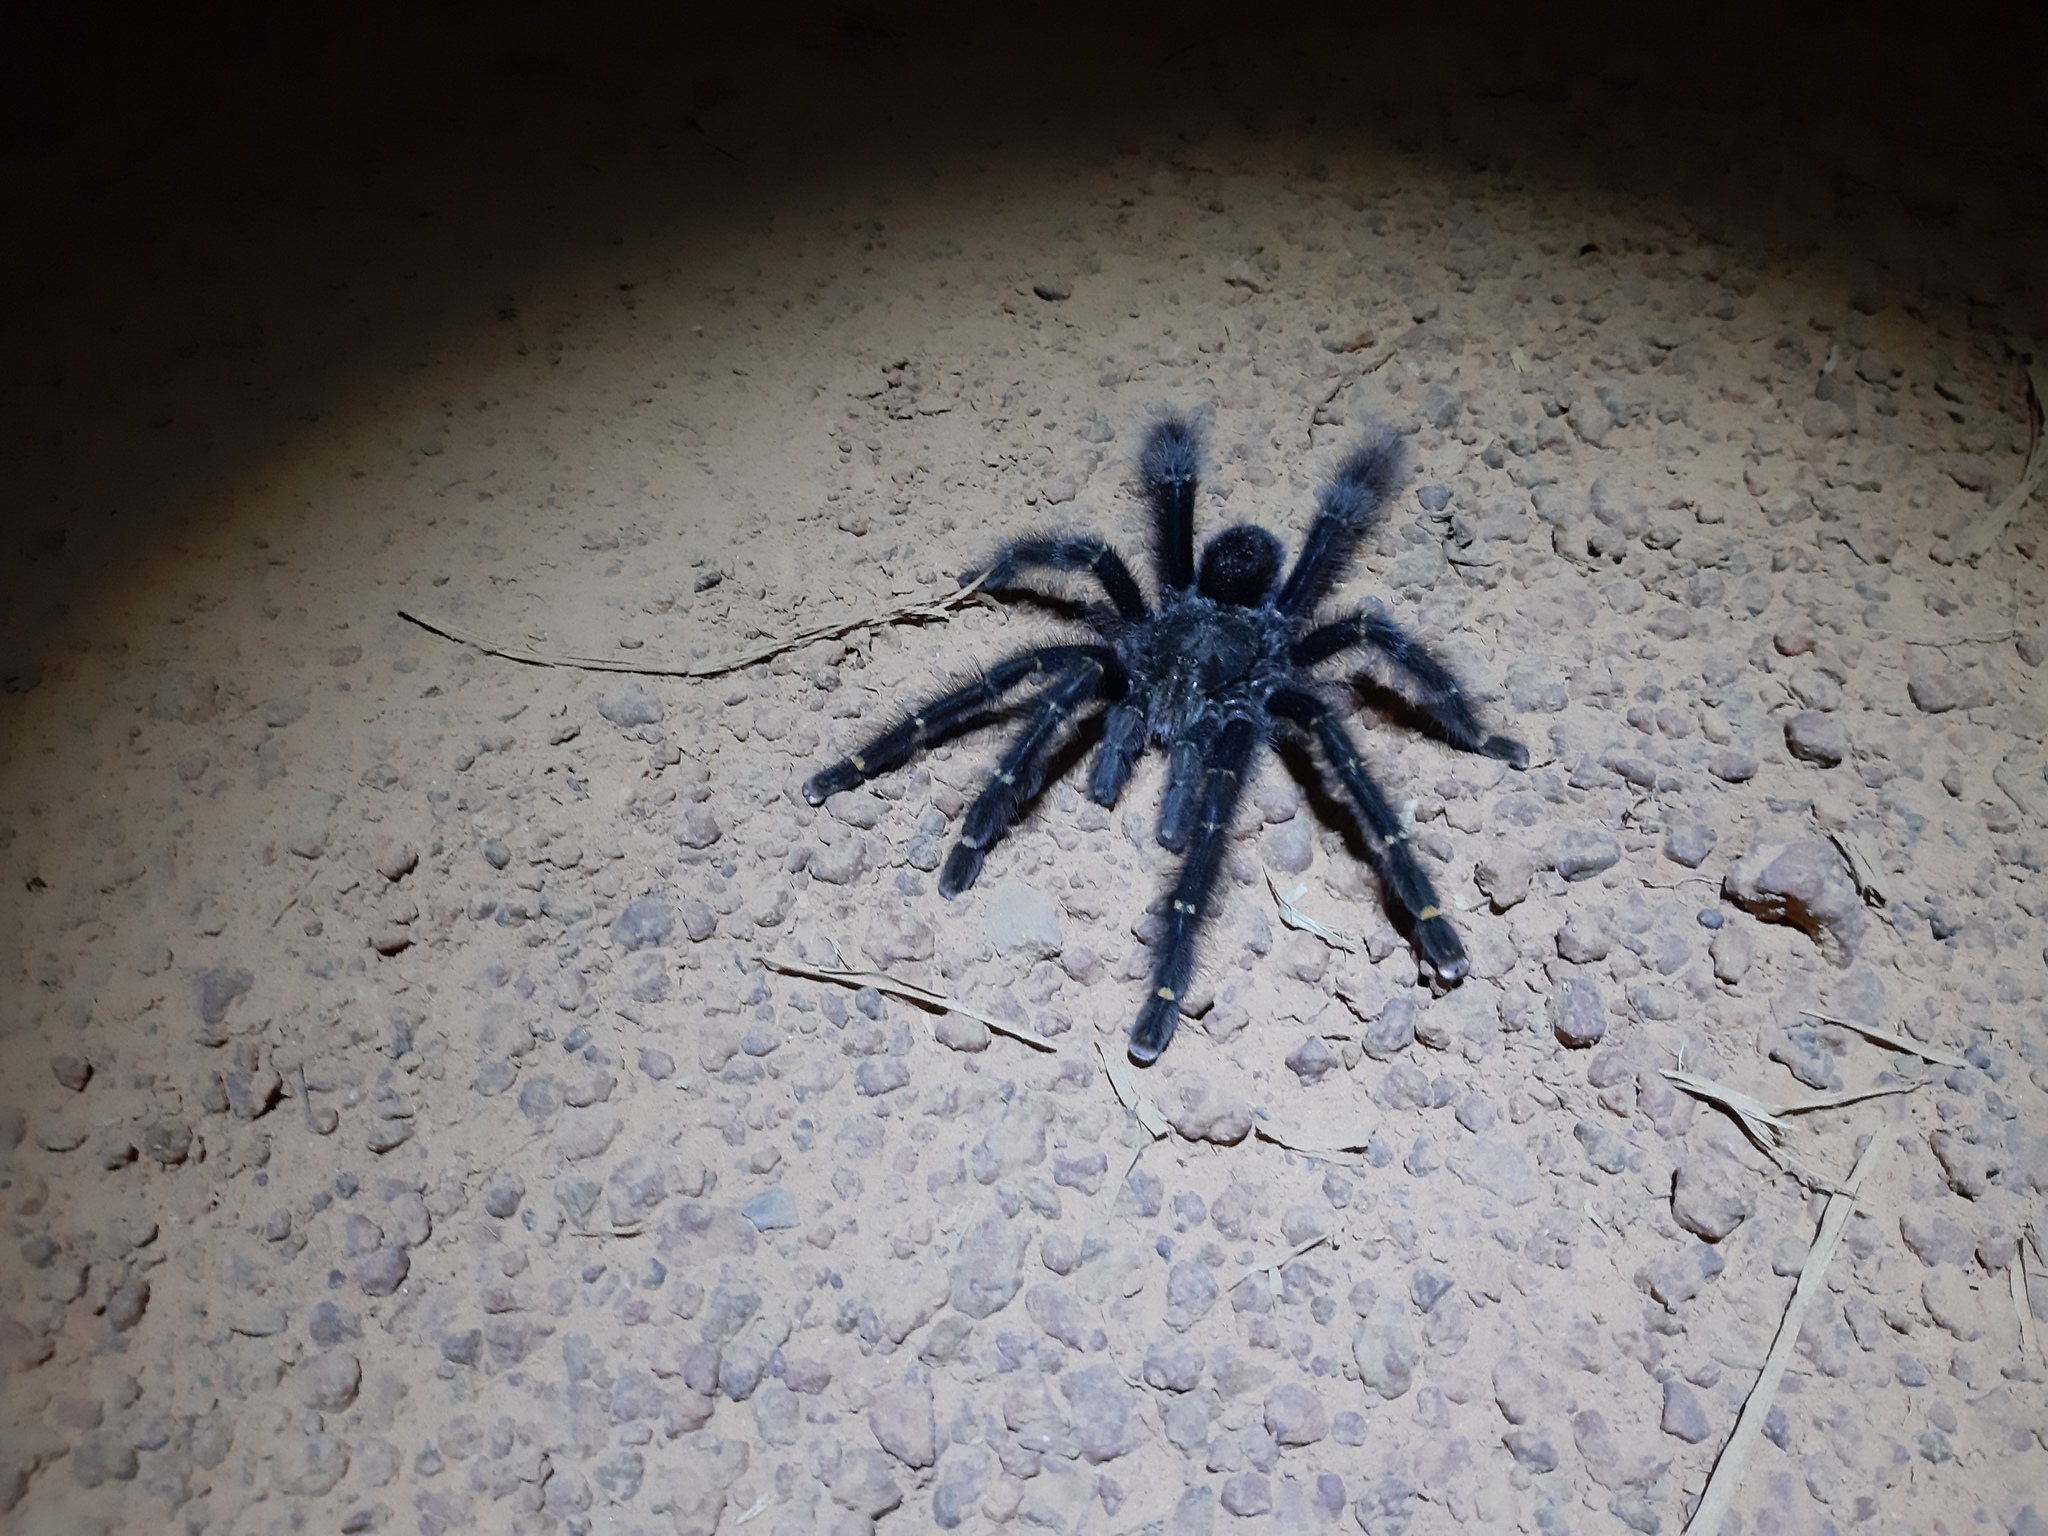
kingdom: Animalia
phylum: Arthropoda
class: Arachnida
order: Araneae
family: Theraphosidae
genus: Avicularia
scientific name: Avicularia rufa
